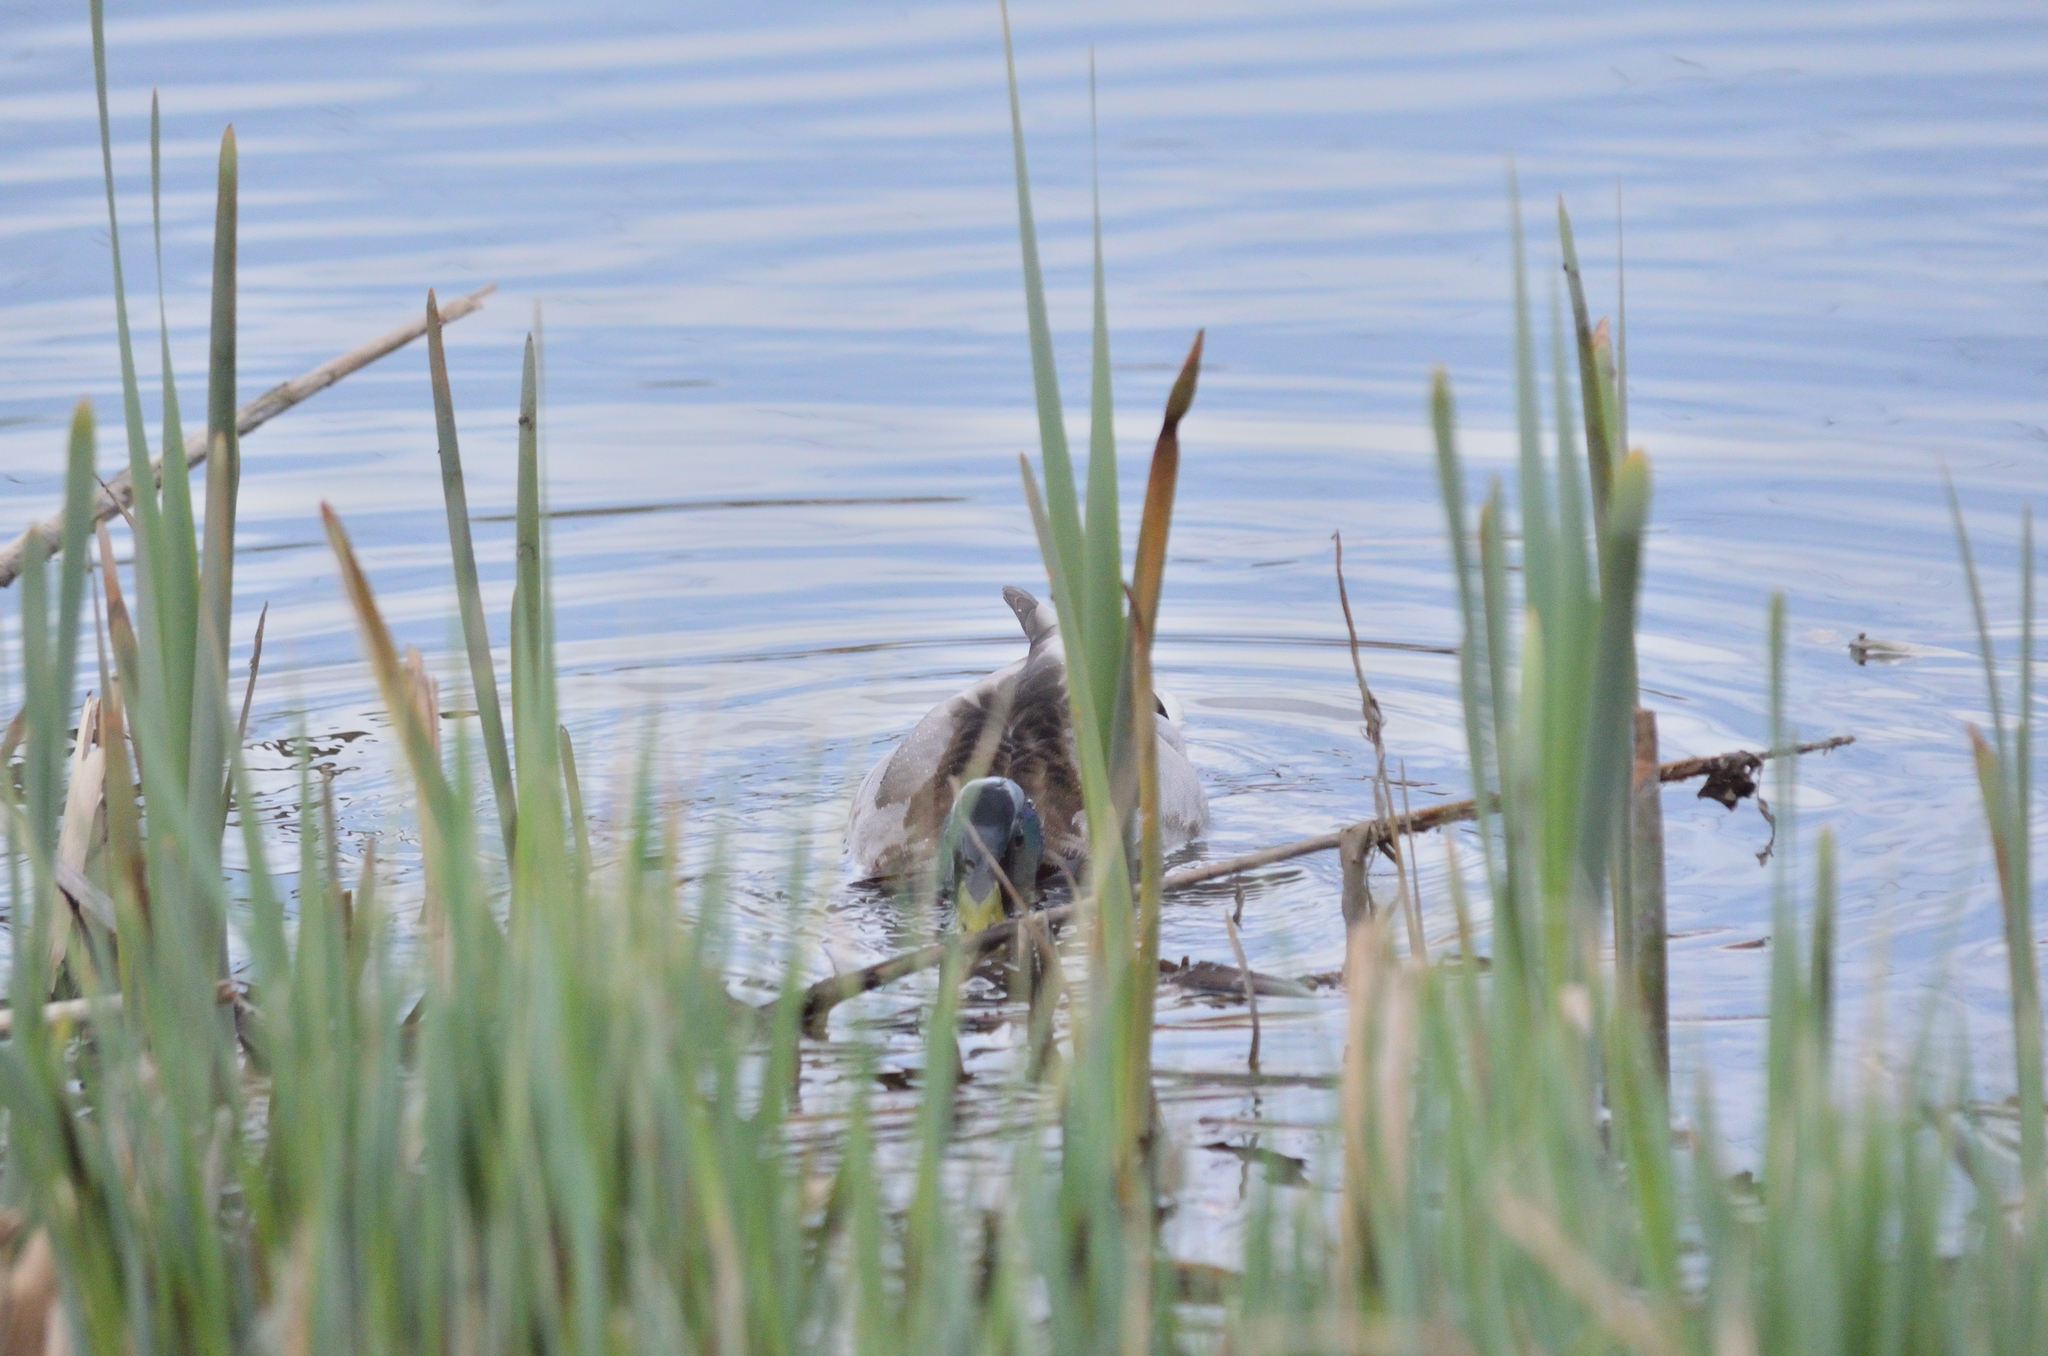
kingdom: Animalia
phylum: Chordata
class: Aves
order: Anseriformes
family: Anatidae
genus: Anas
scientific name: Anas platyrhynchos
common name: Mallard
